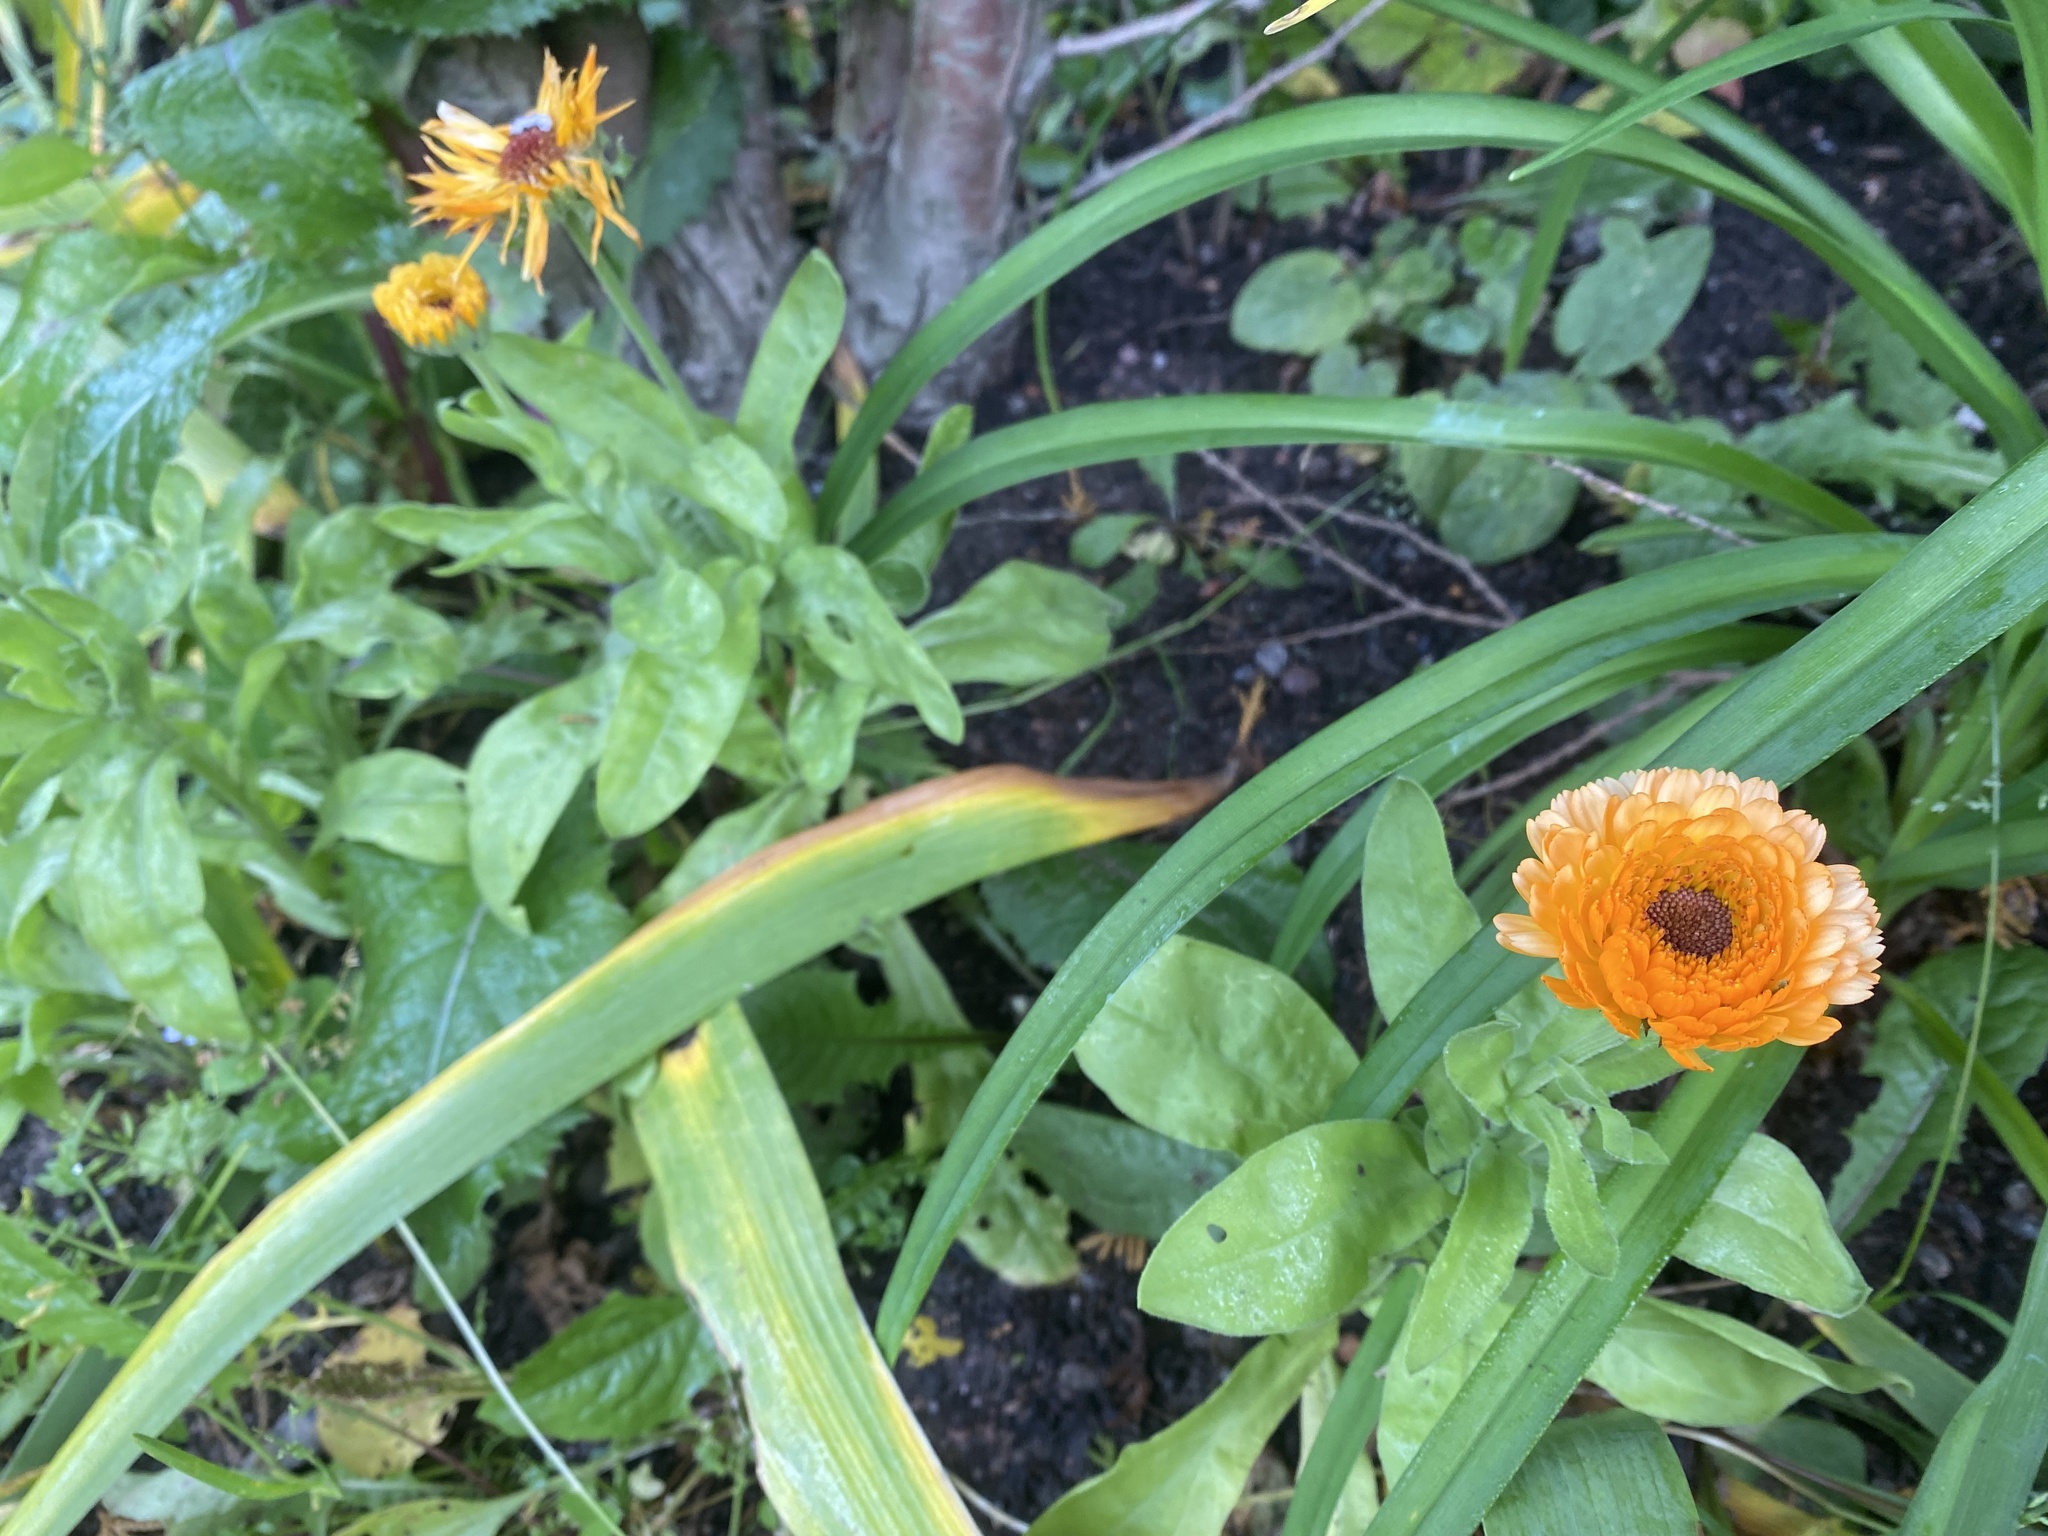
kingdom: Plantae
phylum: Tracheophyta
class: Magnoliopsida
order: Asterales
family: Asteraceae
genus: Calendula
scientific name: Calendula officinalis
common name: Pot marigold
